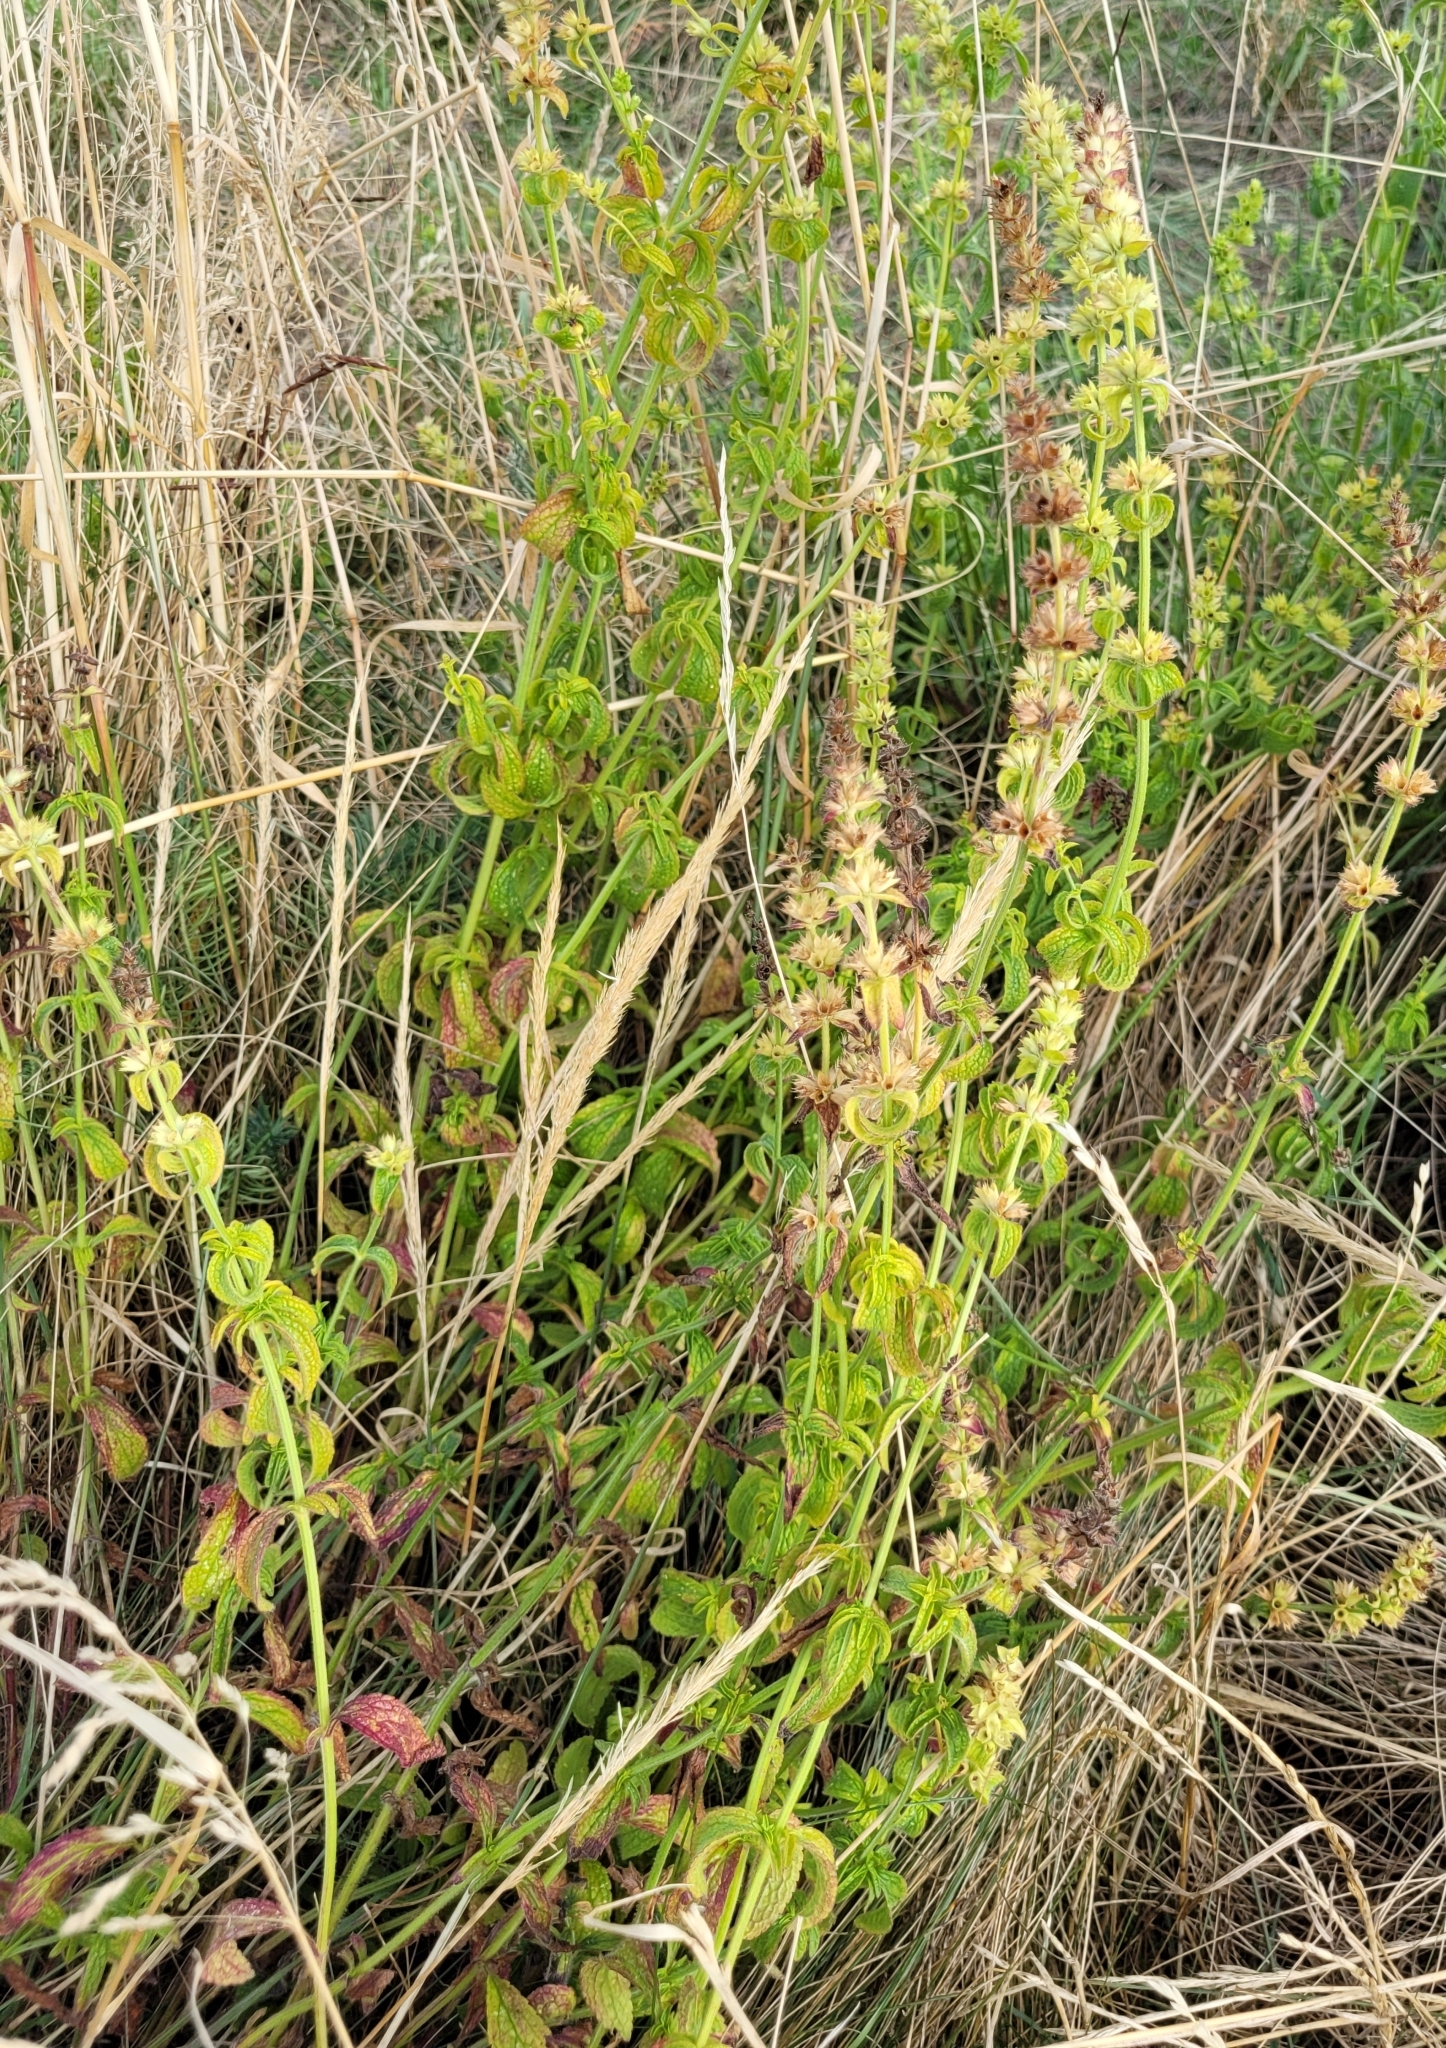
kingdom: Plantae
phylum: Tracheophyta
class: Magnoliopsida
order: Lamiales
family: Lamiaceae
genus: Stachys
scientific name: Stachys recta
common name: Perennial yellow-woundwort
